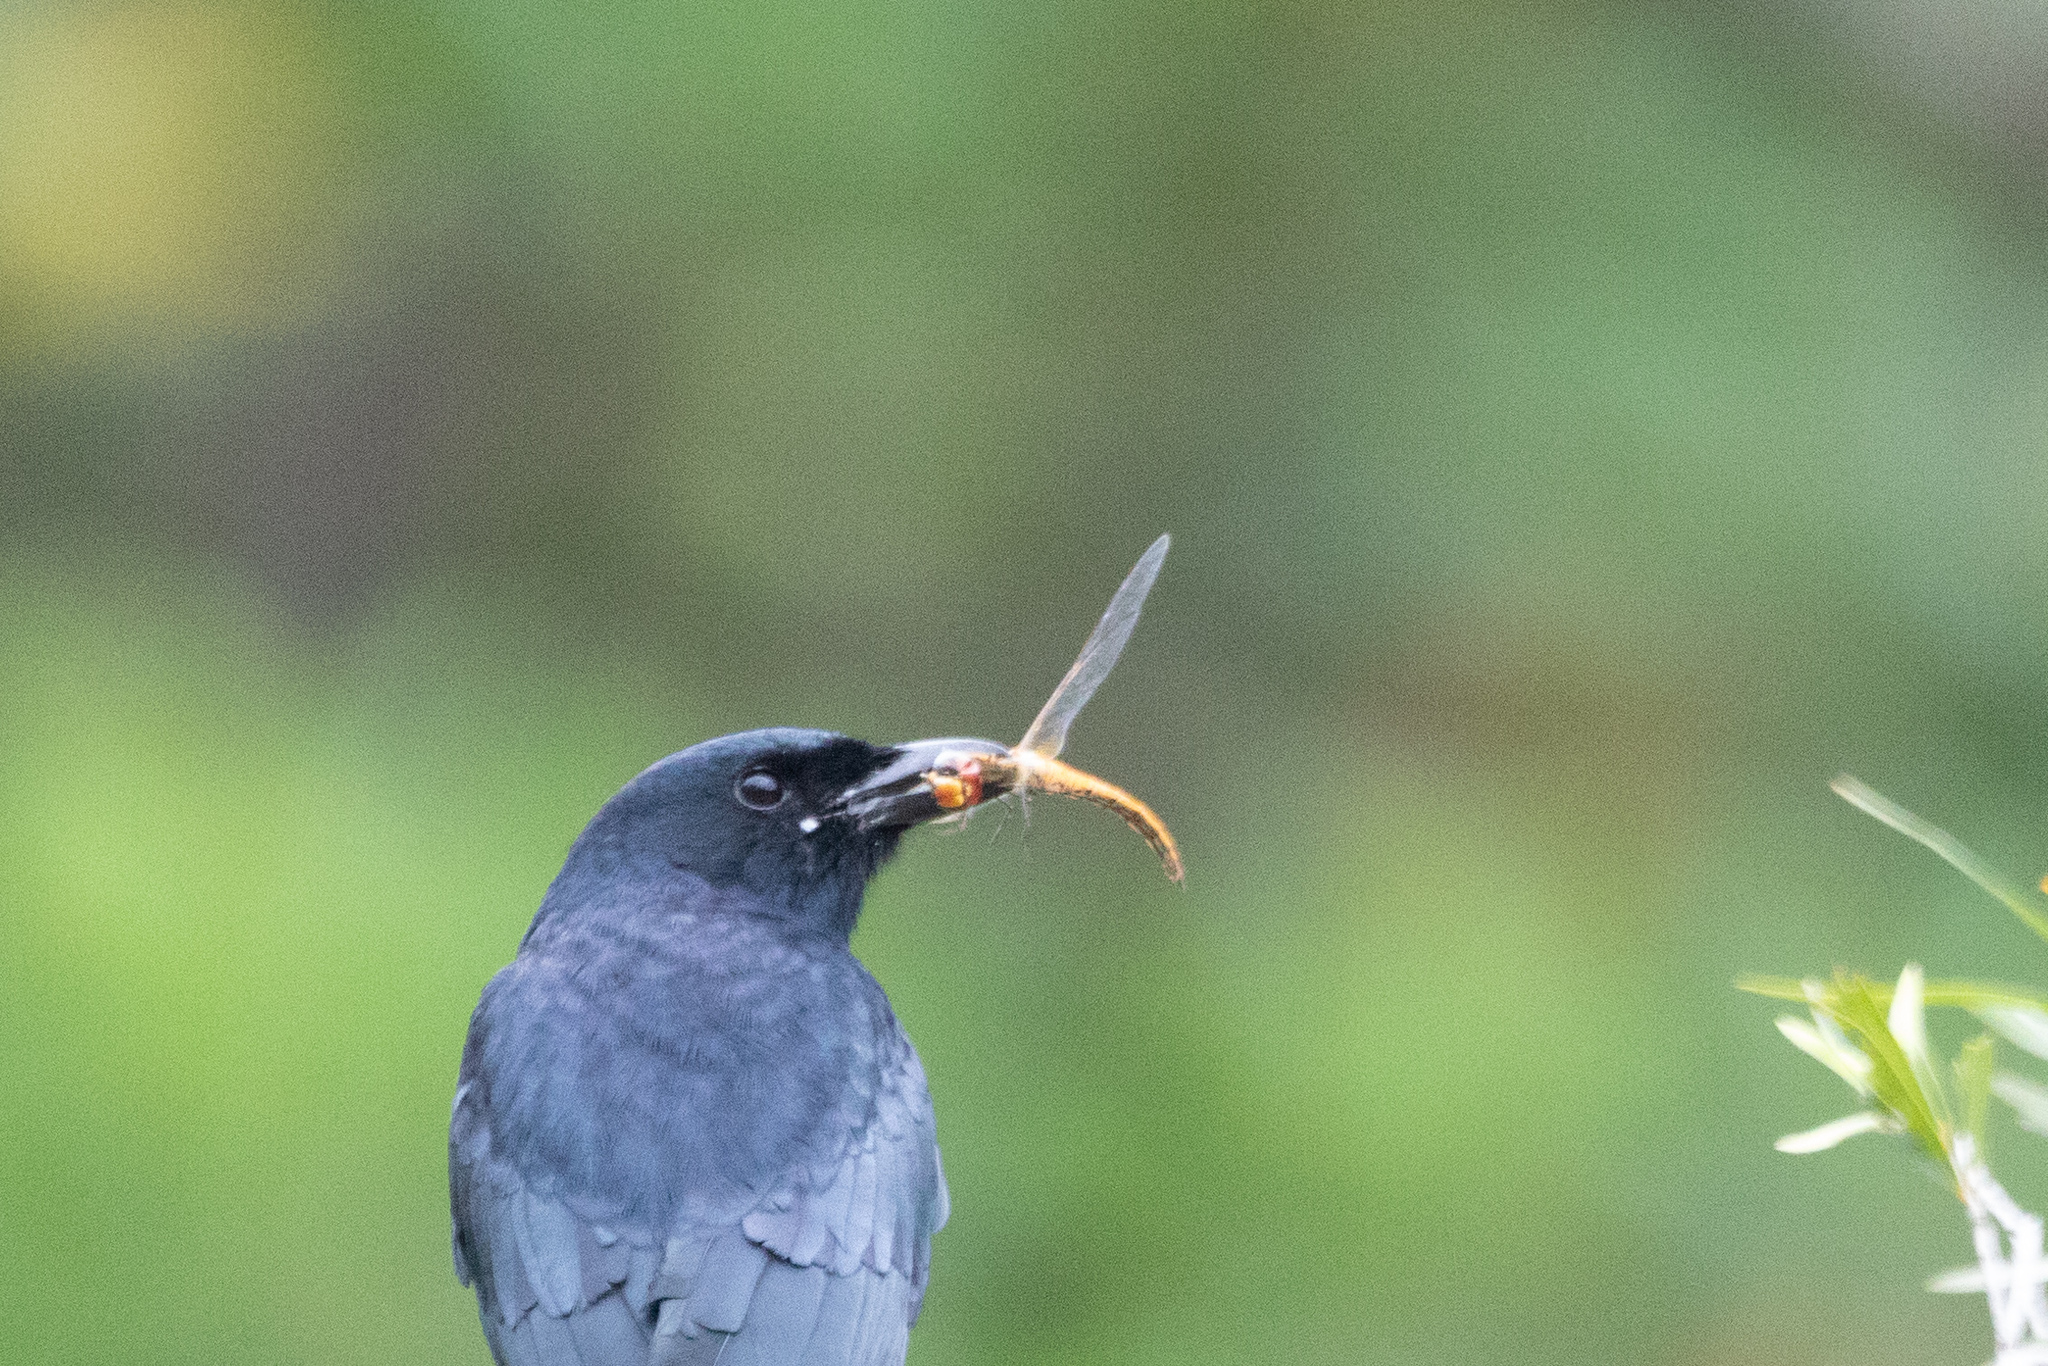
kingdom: Animalia
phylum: Arthropoda
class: Insecta
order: Odonata
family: Libellulidae
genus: Pantala
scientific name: Pantala flavescens
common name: Wandering glider
